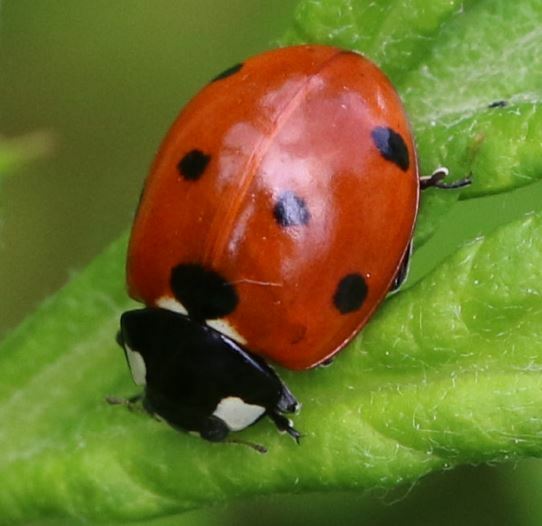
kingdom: Animalia
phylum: Arthropoda
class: Insecta
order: Coleoptera
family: Coccinellidae
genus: Coccinella
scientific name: Coccinella septempunctata
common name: Sevenspotted lady beetle
